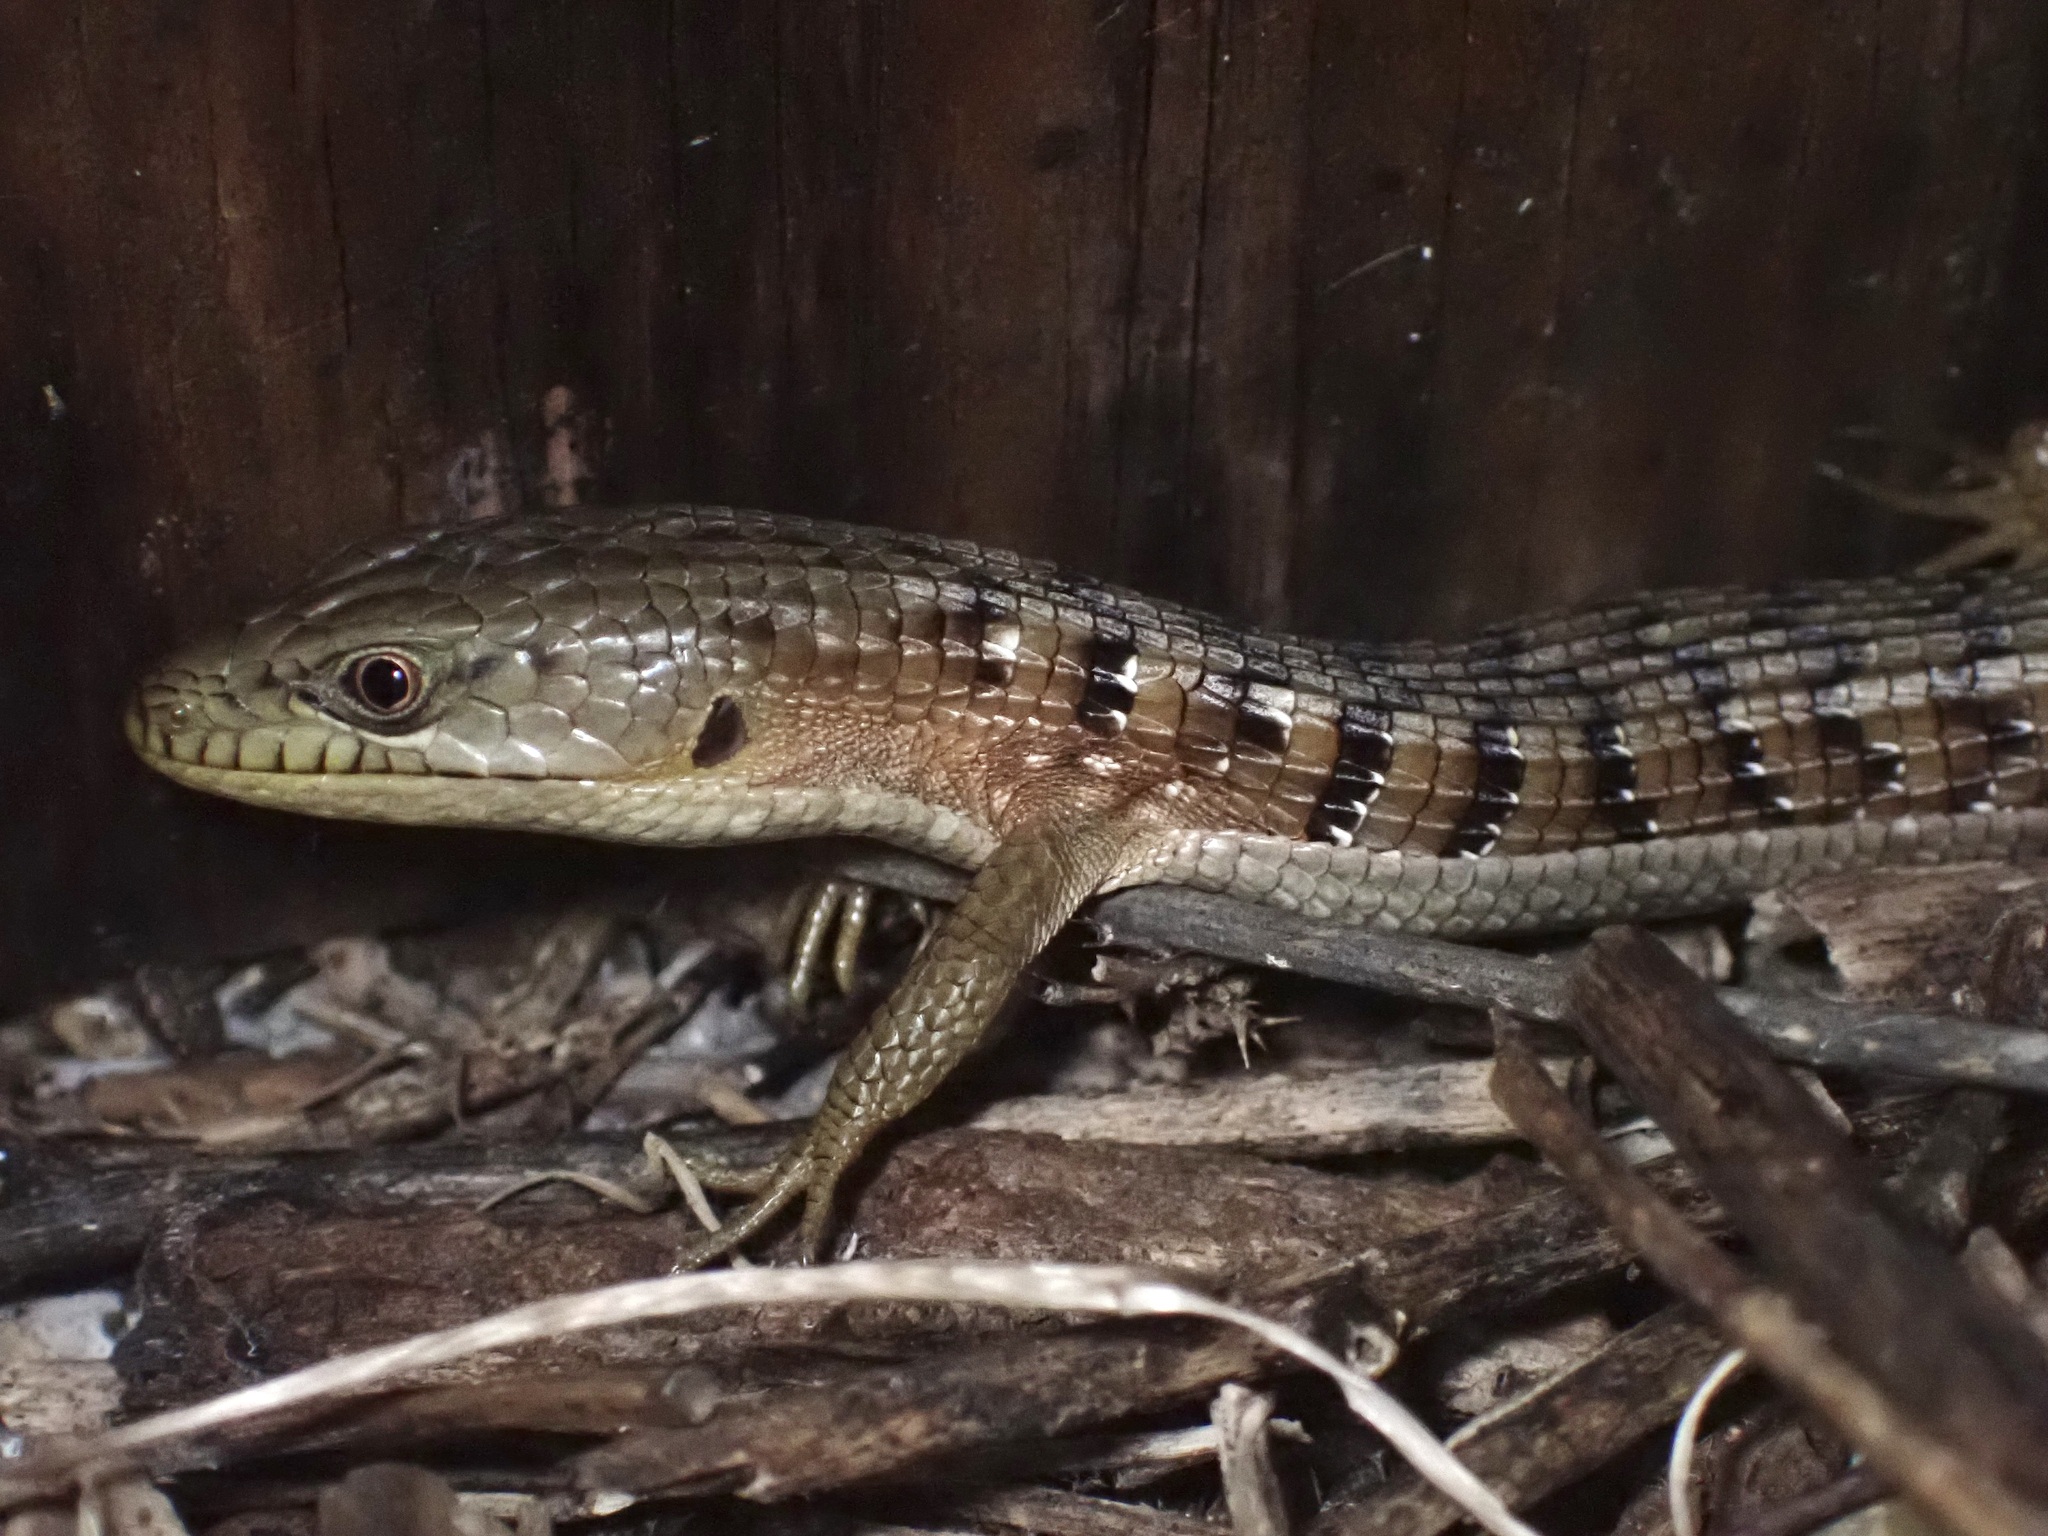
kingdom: Animalia
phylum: Chordata
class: Squamata
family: Anguidae
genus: Elgaria
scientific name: Elgaria multicarinata
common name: Southern alligator lizard
